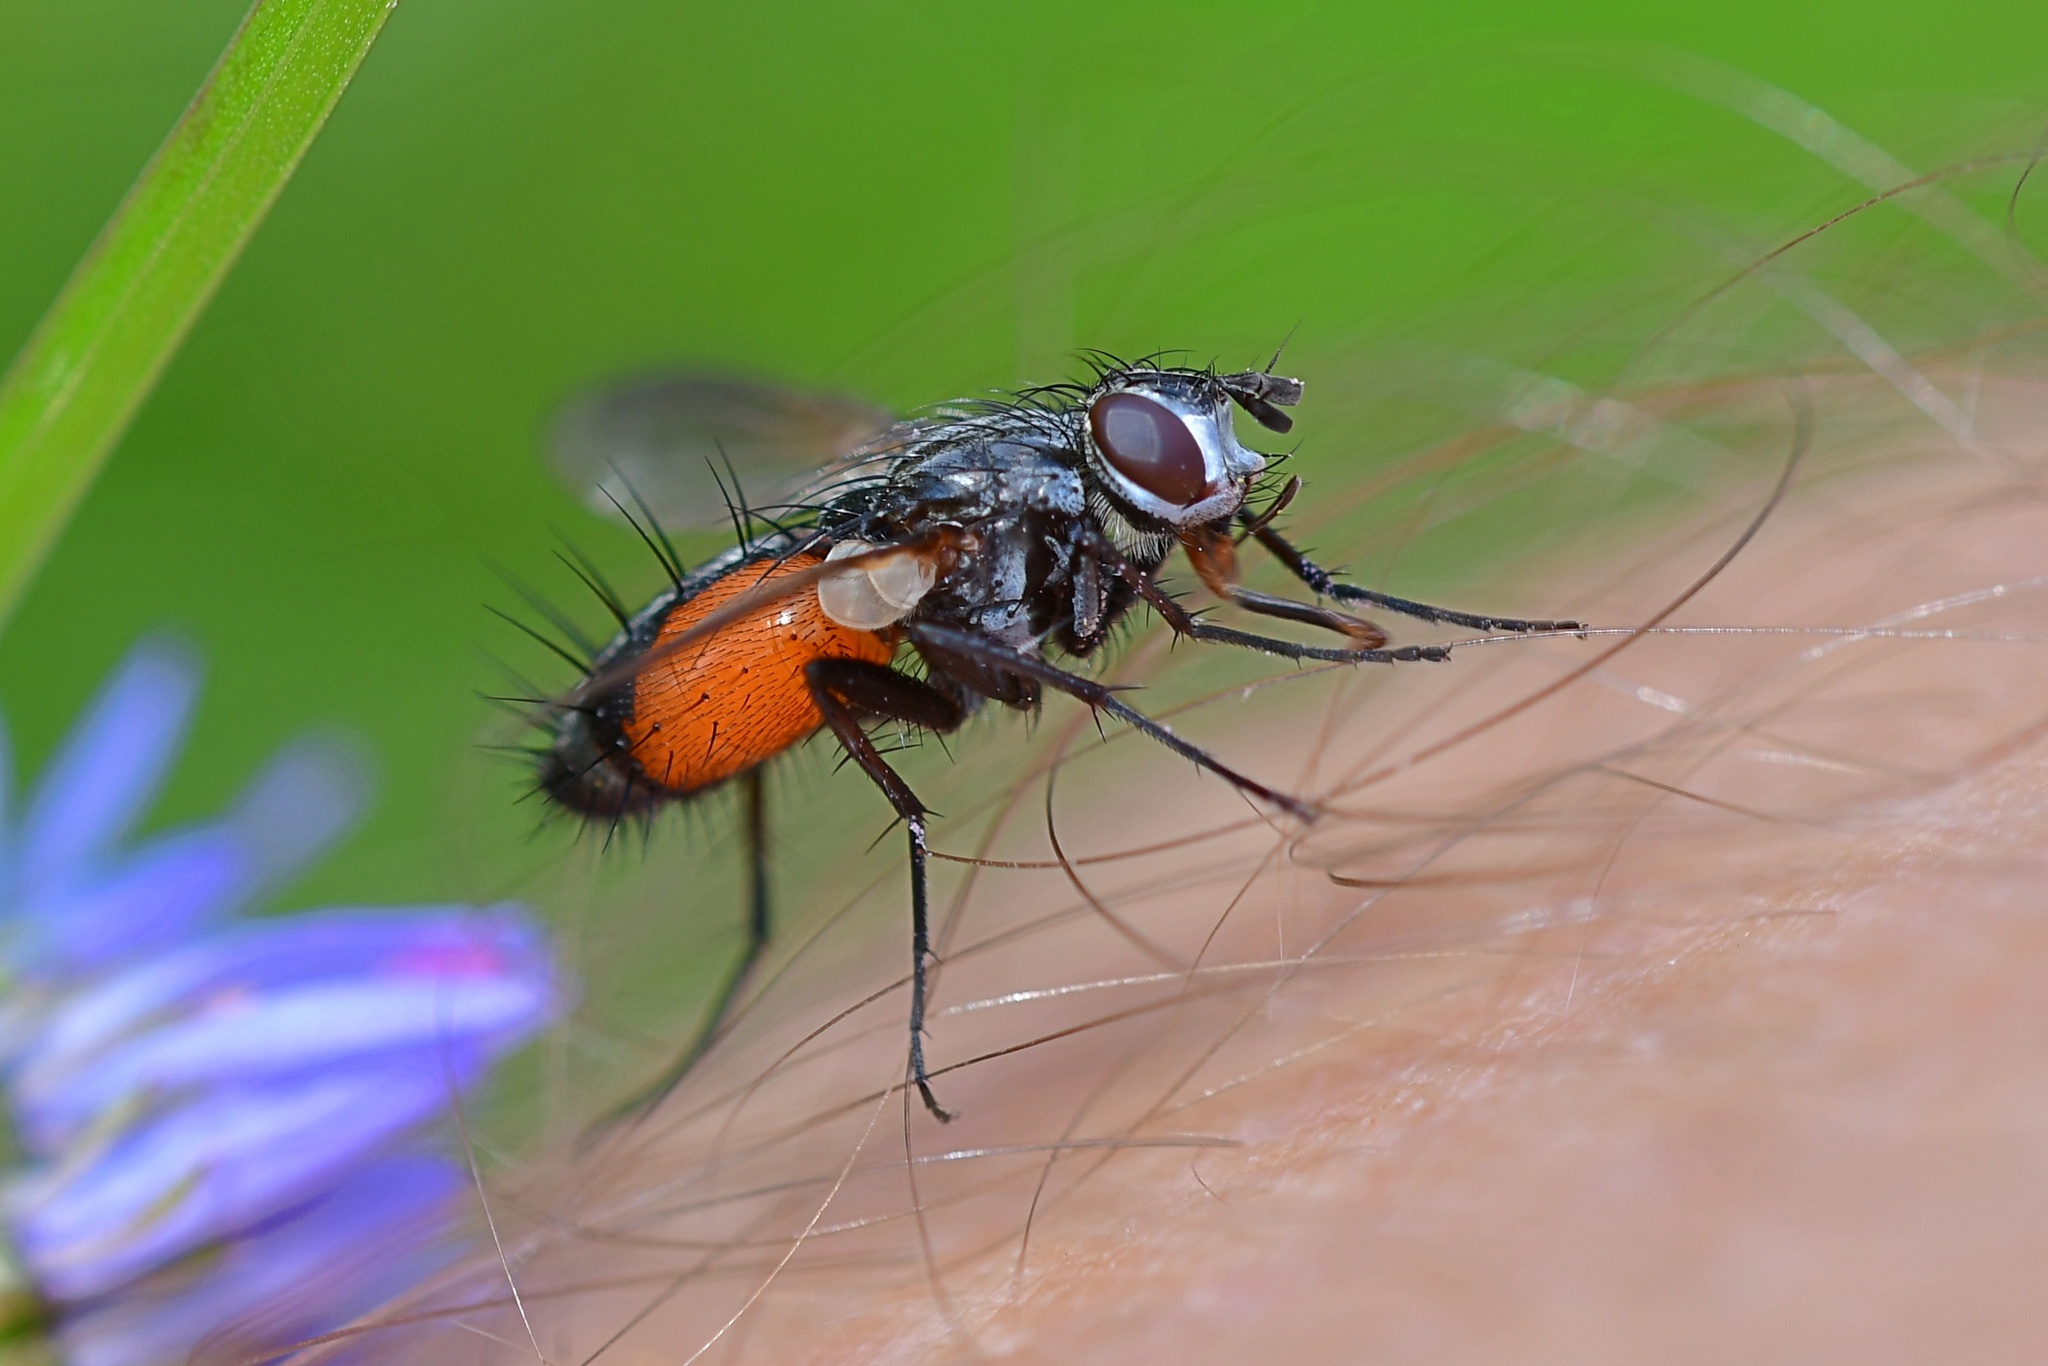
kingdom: Animalia
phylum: Arthropoda
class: Insecta
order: Diptera
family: Tachinidae
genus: Eriothrix
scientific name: Eriothrix rufomaculatus
